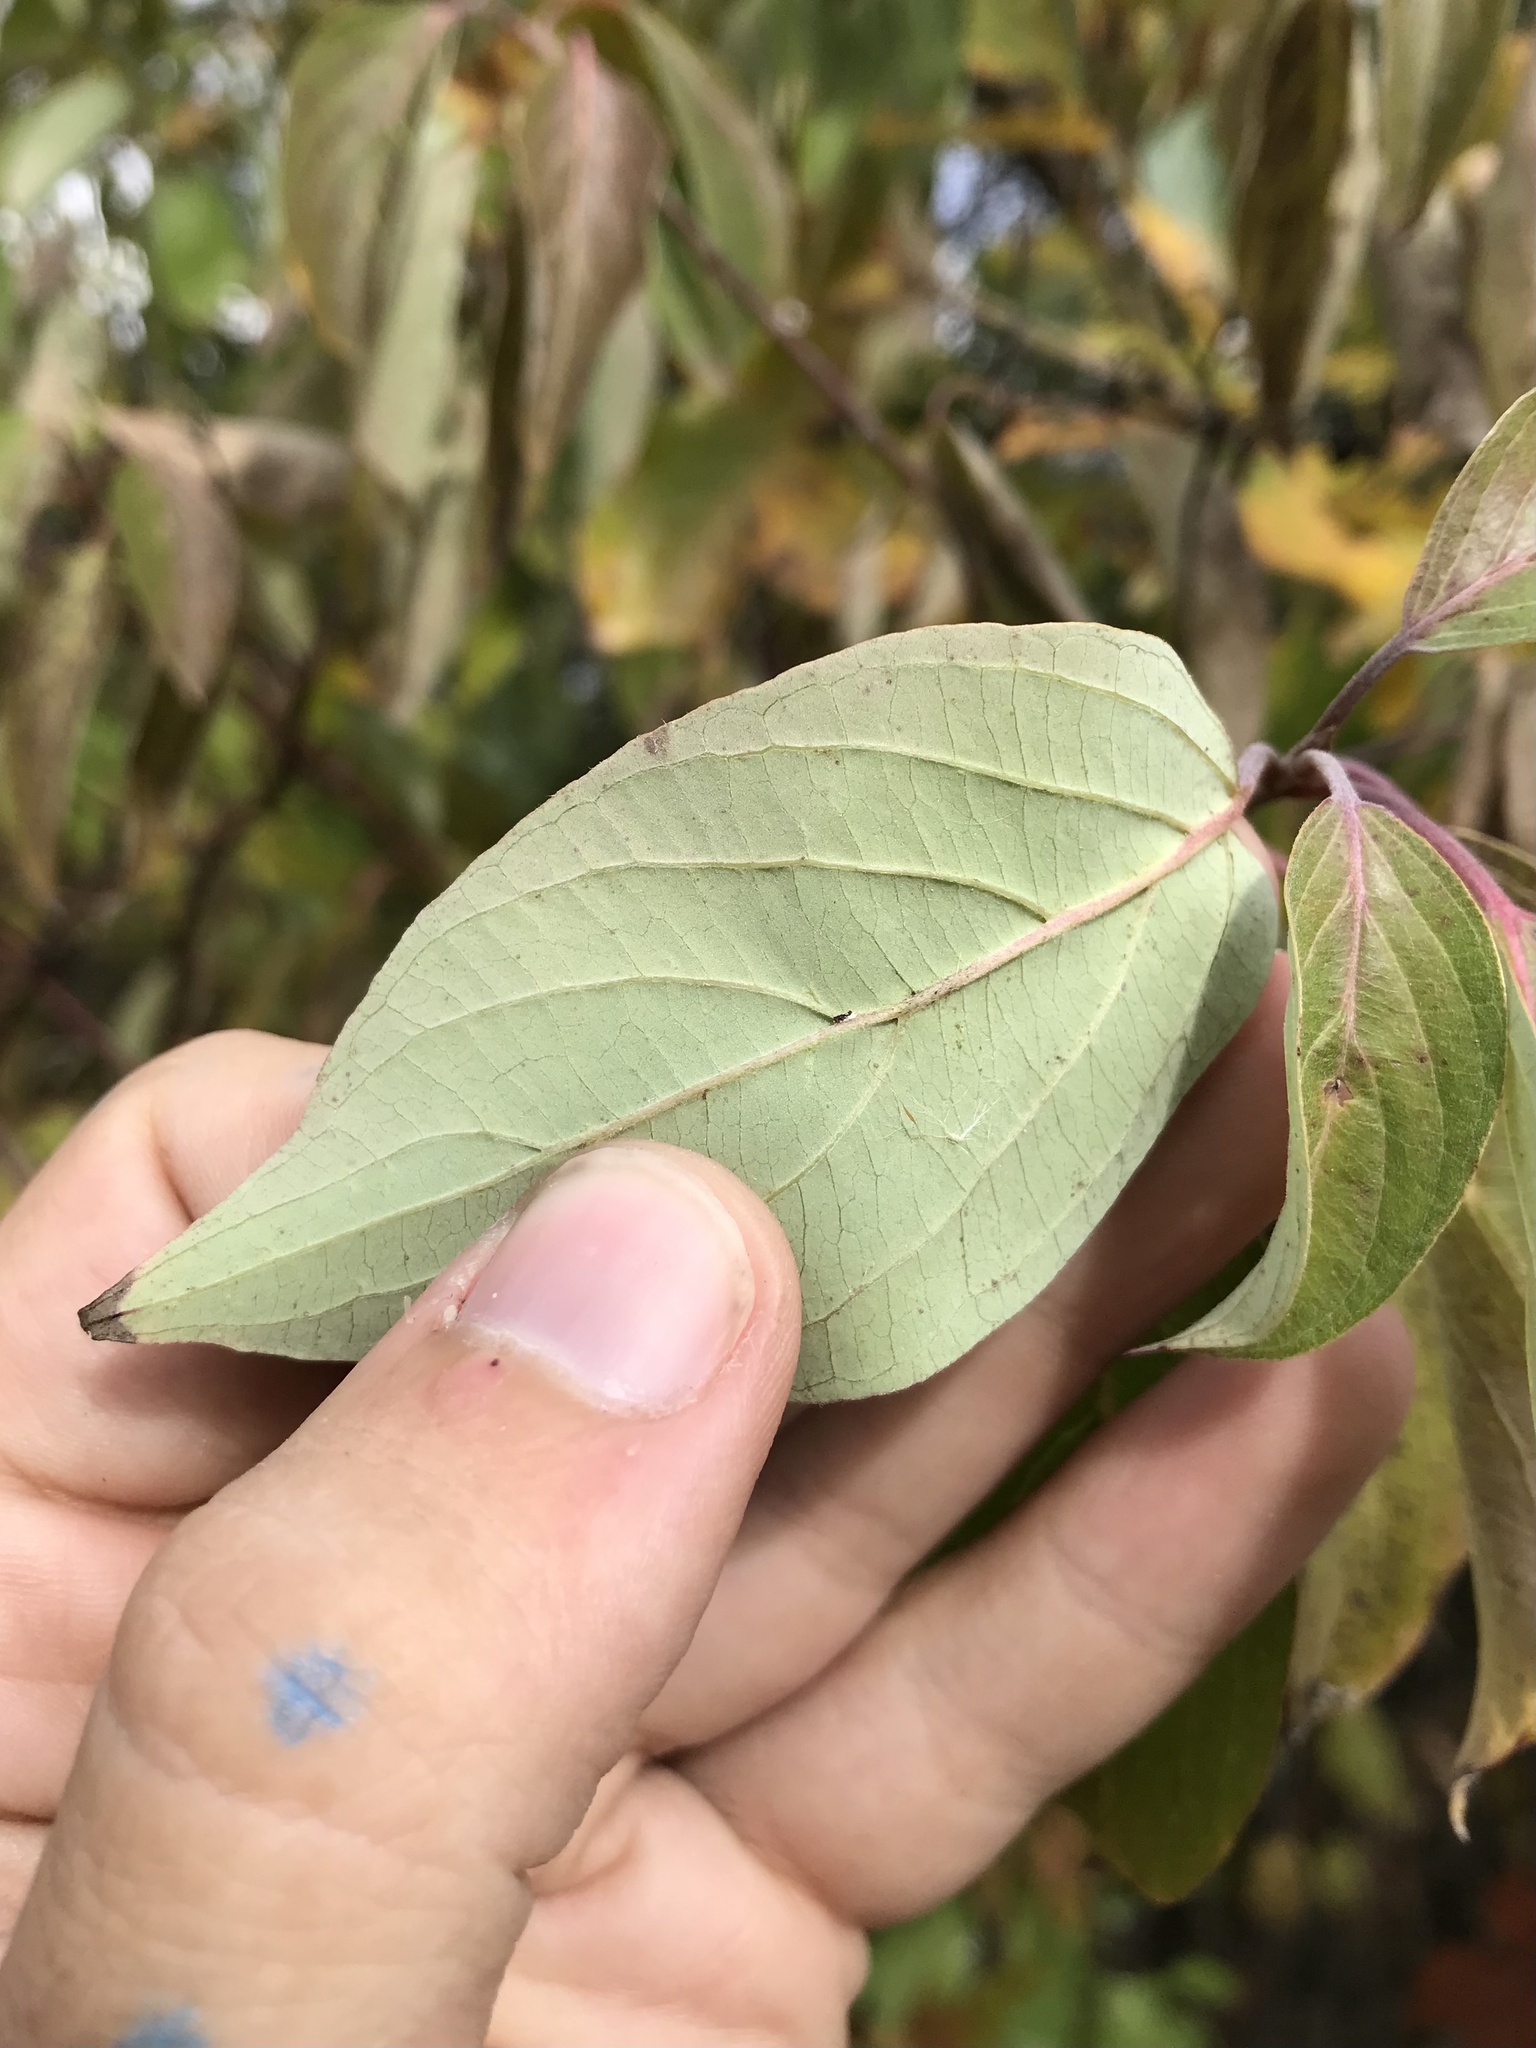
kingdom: Plantae
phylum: Tracheophyta
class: Magnoliopsida
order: Cornales
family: Cornaceae
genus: Cornus
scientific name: Cornus amomum
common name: Silky dogwood
